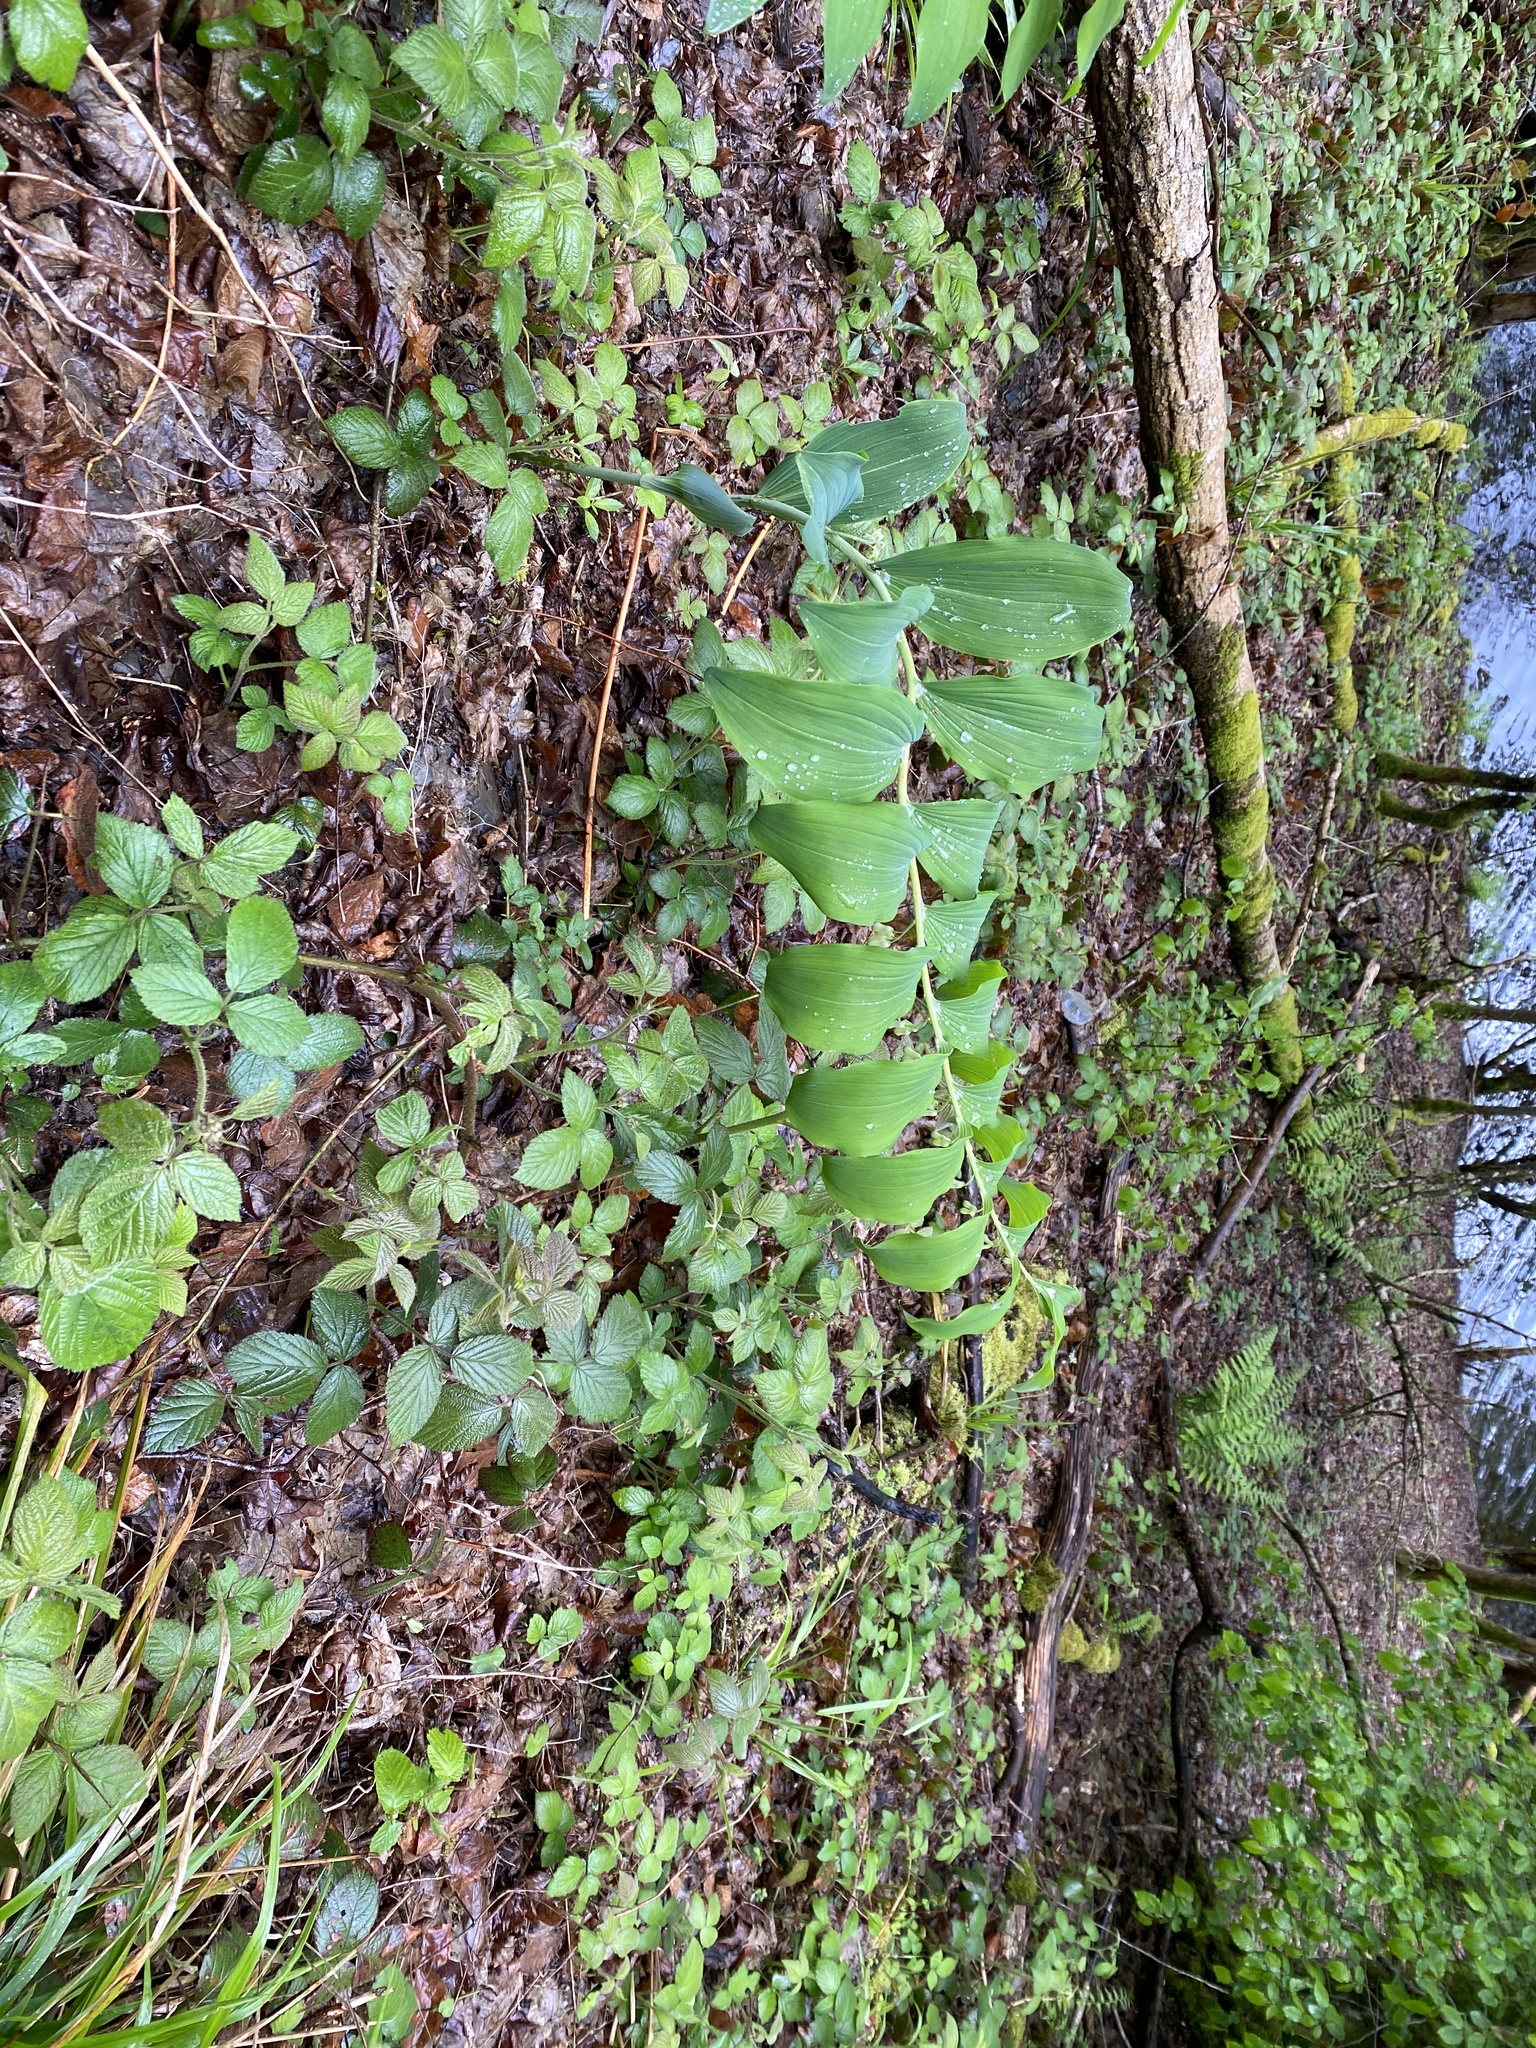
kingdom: Plantae
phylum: Tracheophyta
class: Liliopsida
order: Asparagales
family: Asparagaceae
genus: Polygonatum
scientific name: Polygonatum multiflorum
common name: Solomon's-seal
